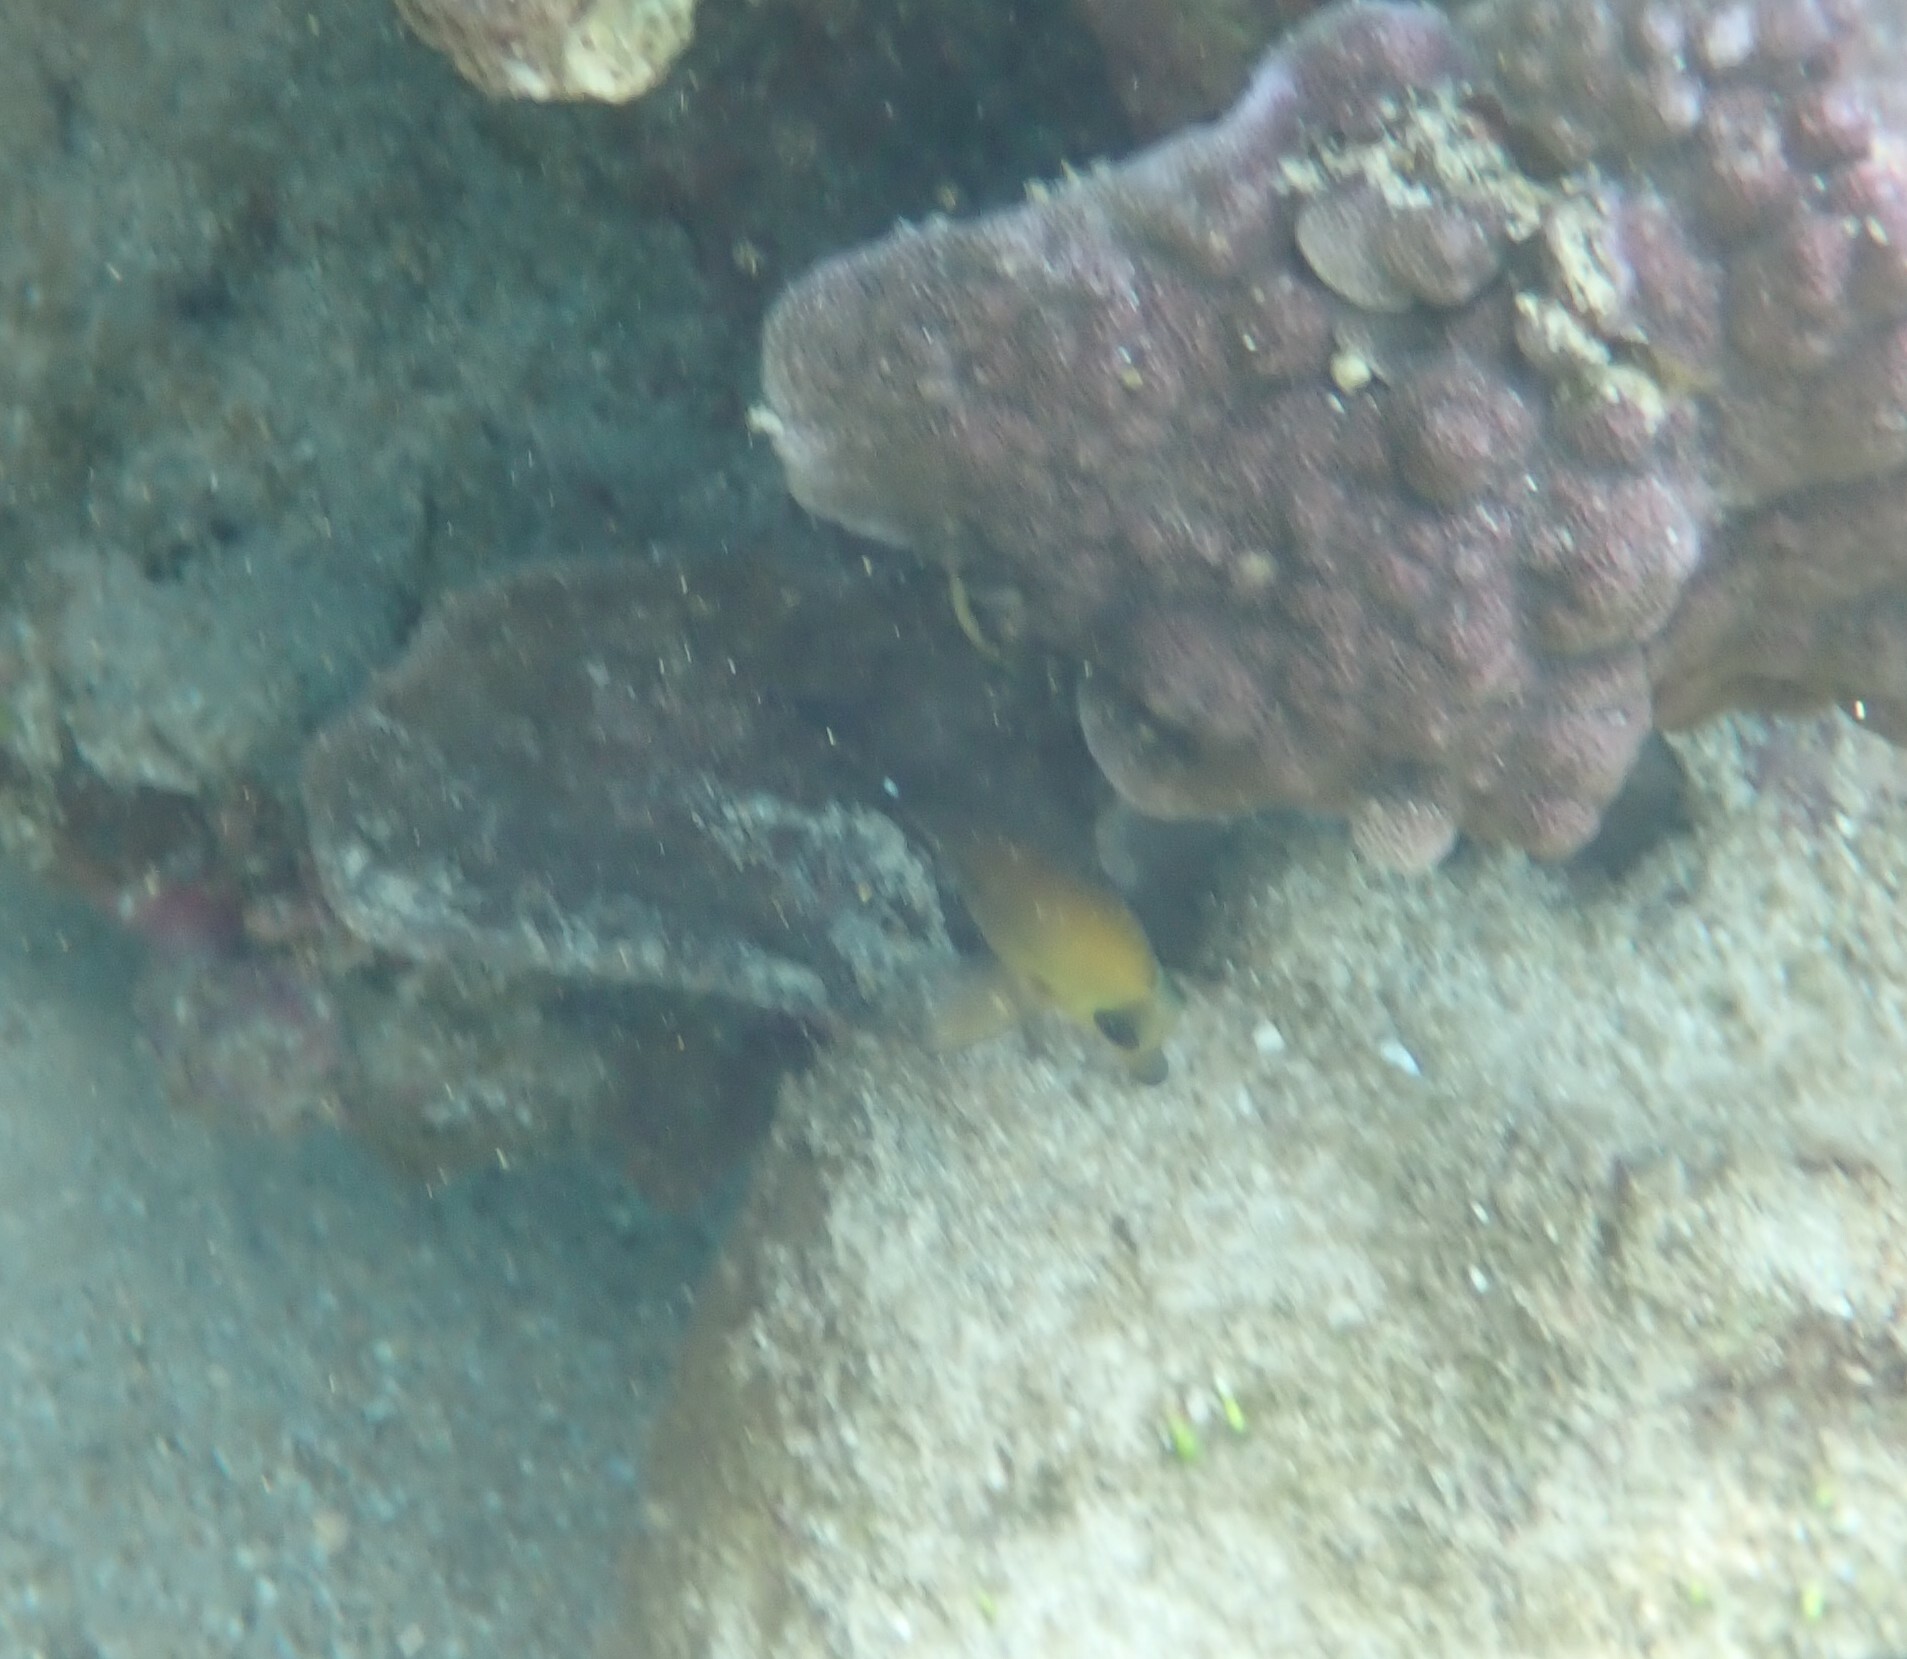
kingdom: Animalia
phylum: Chordata
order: Perciformes
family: Acanthuridae
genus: Zebrasoma
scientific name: Zebrasoma scopas
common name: Twotone tang
